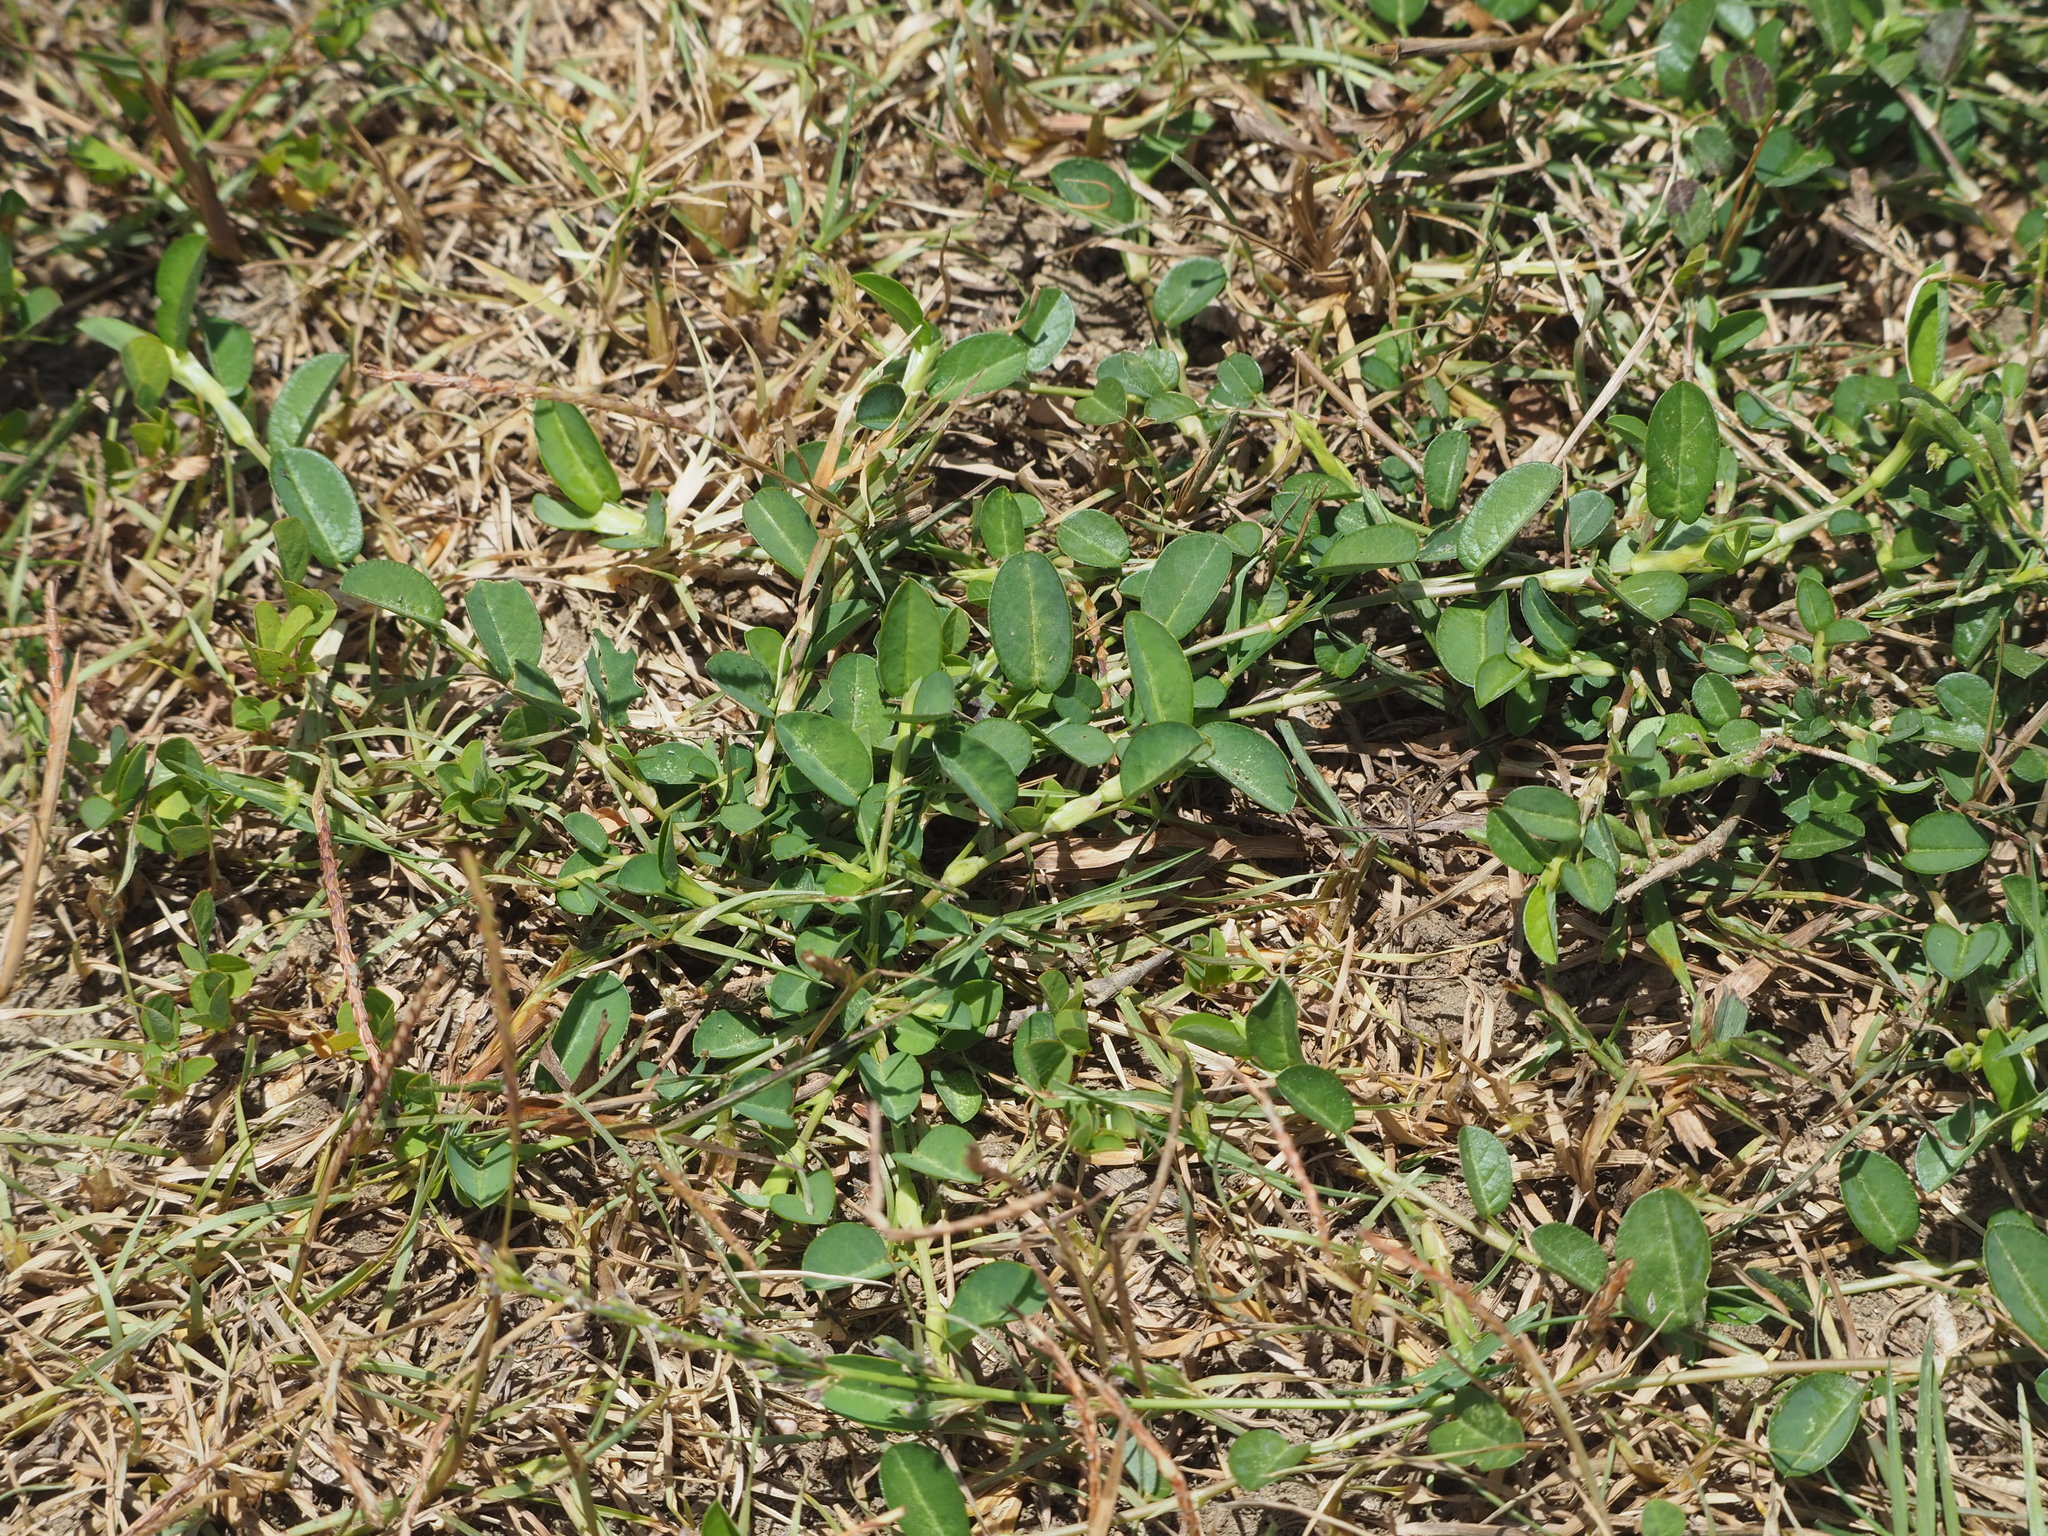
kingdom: Plantae
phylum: Tracheophyta
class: Magnoliopsida
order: Fabales
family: Fabaceae
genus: Alysicarpus
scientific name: Alysicarpus vaginalis
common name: White moneywort
